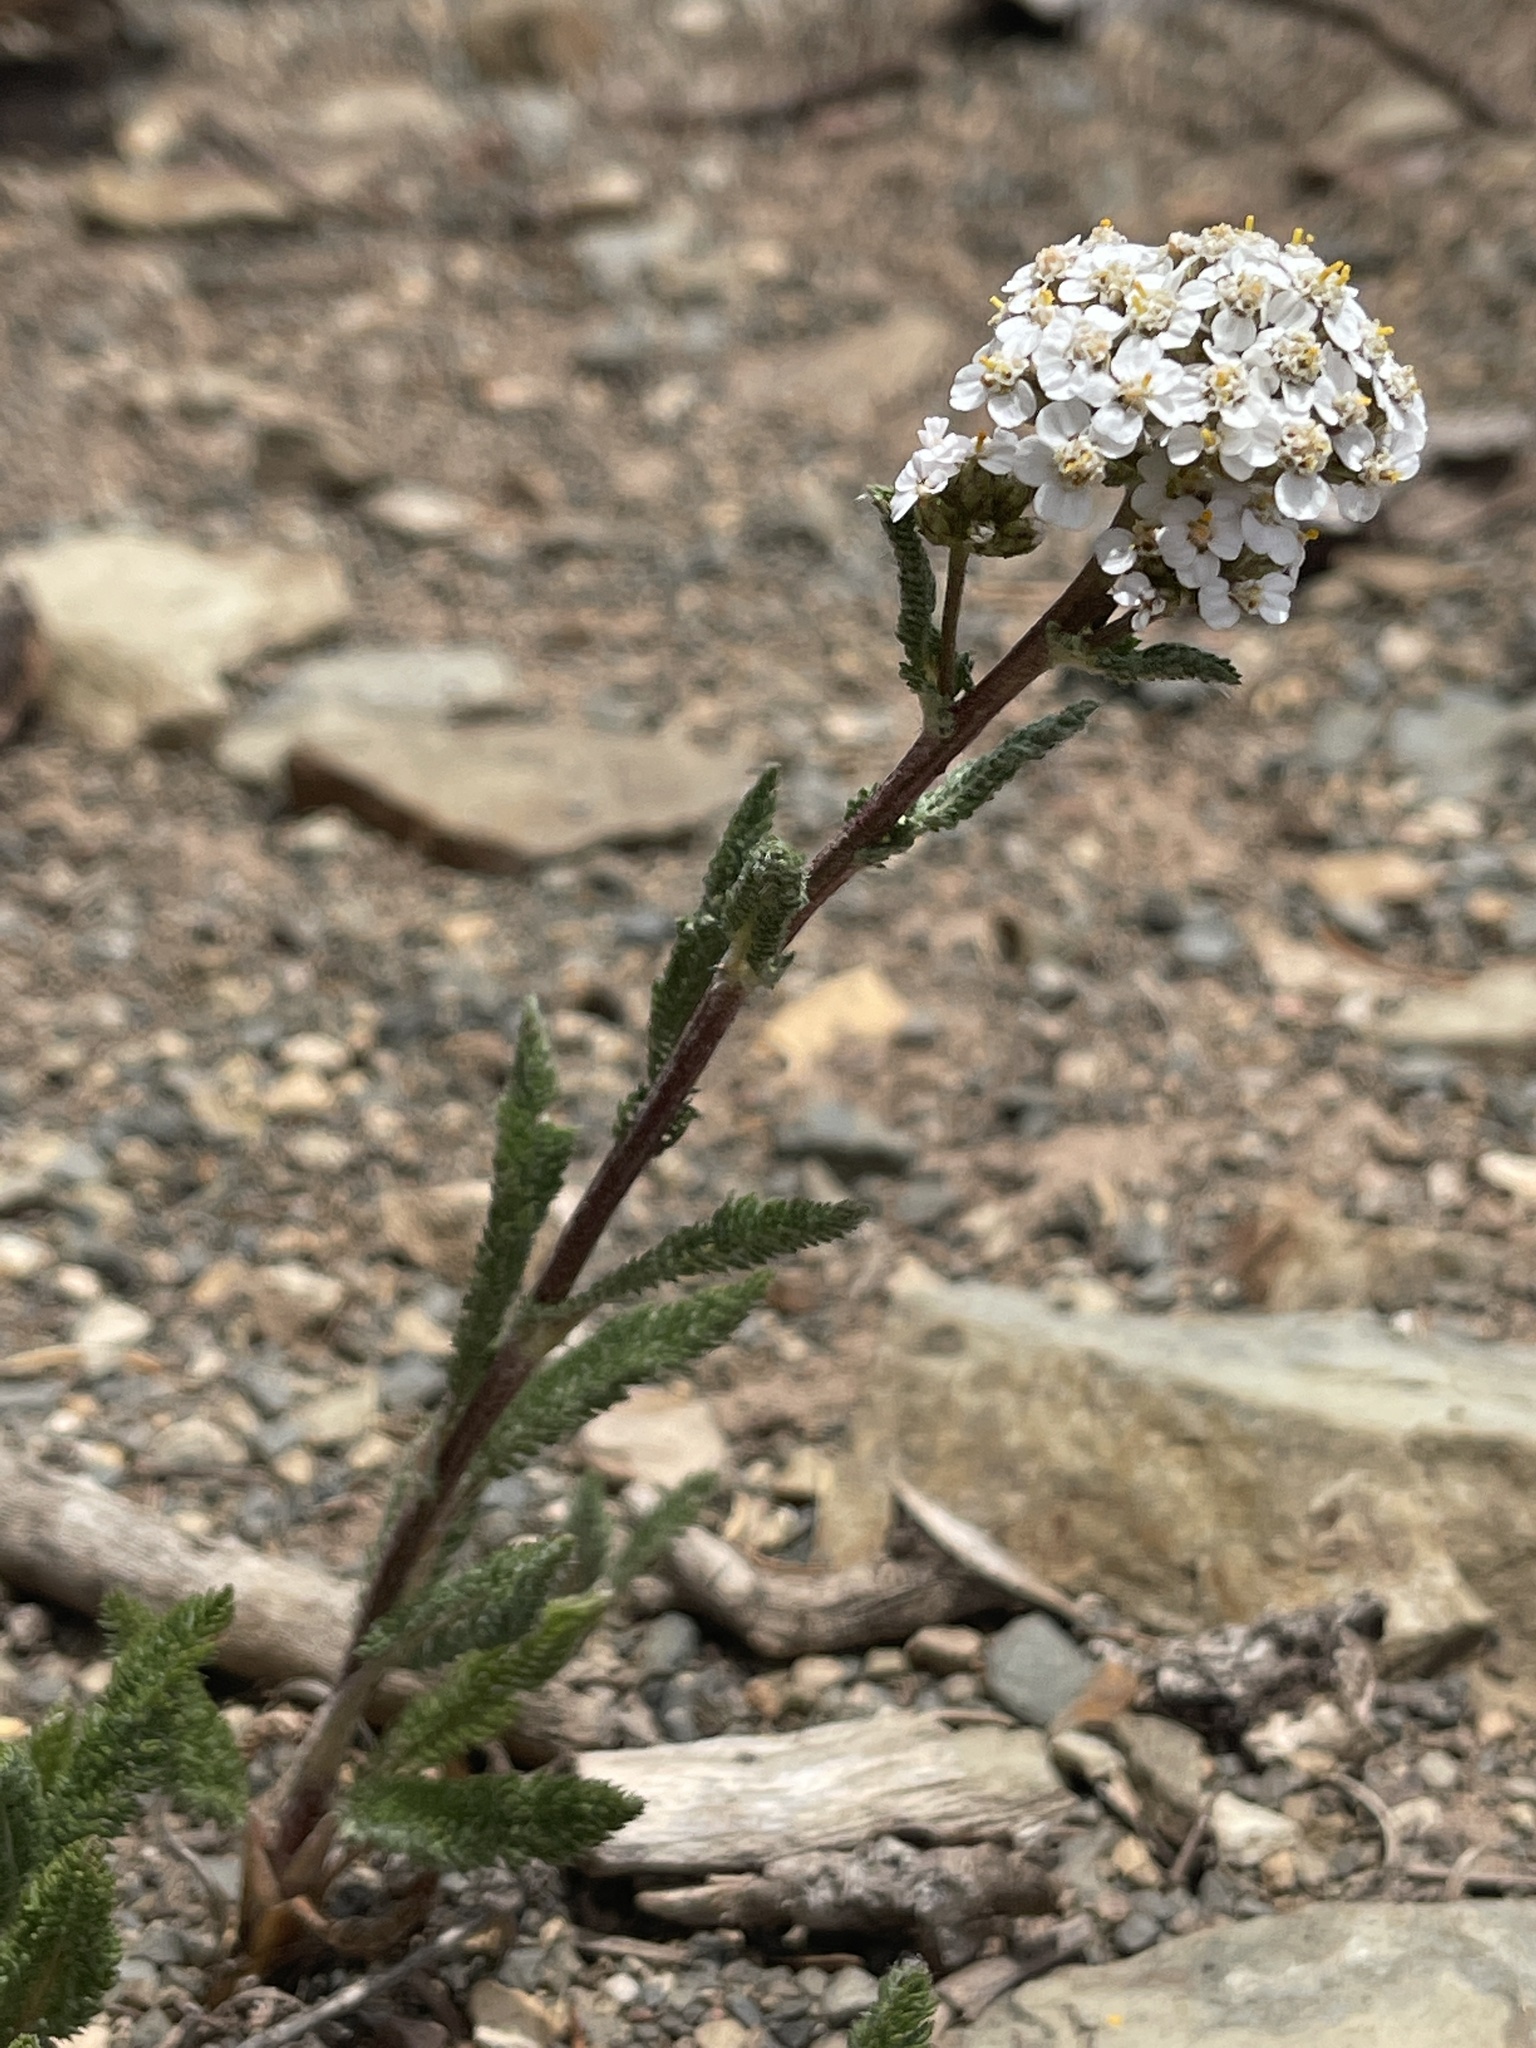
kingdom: Plantae
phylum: Tracheophyta
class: Magnoliopsida
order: Asterales
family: Asteraceae
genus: Achillea
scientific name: Achillea millefolium
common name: Yarrow
